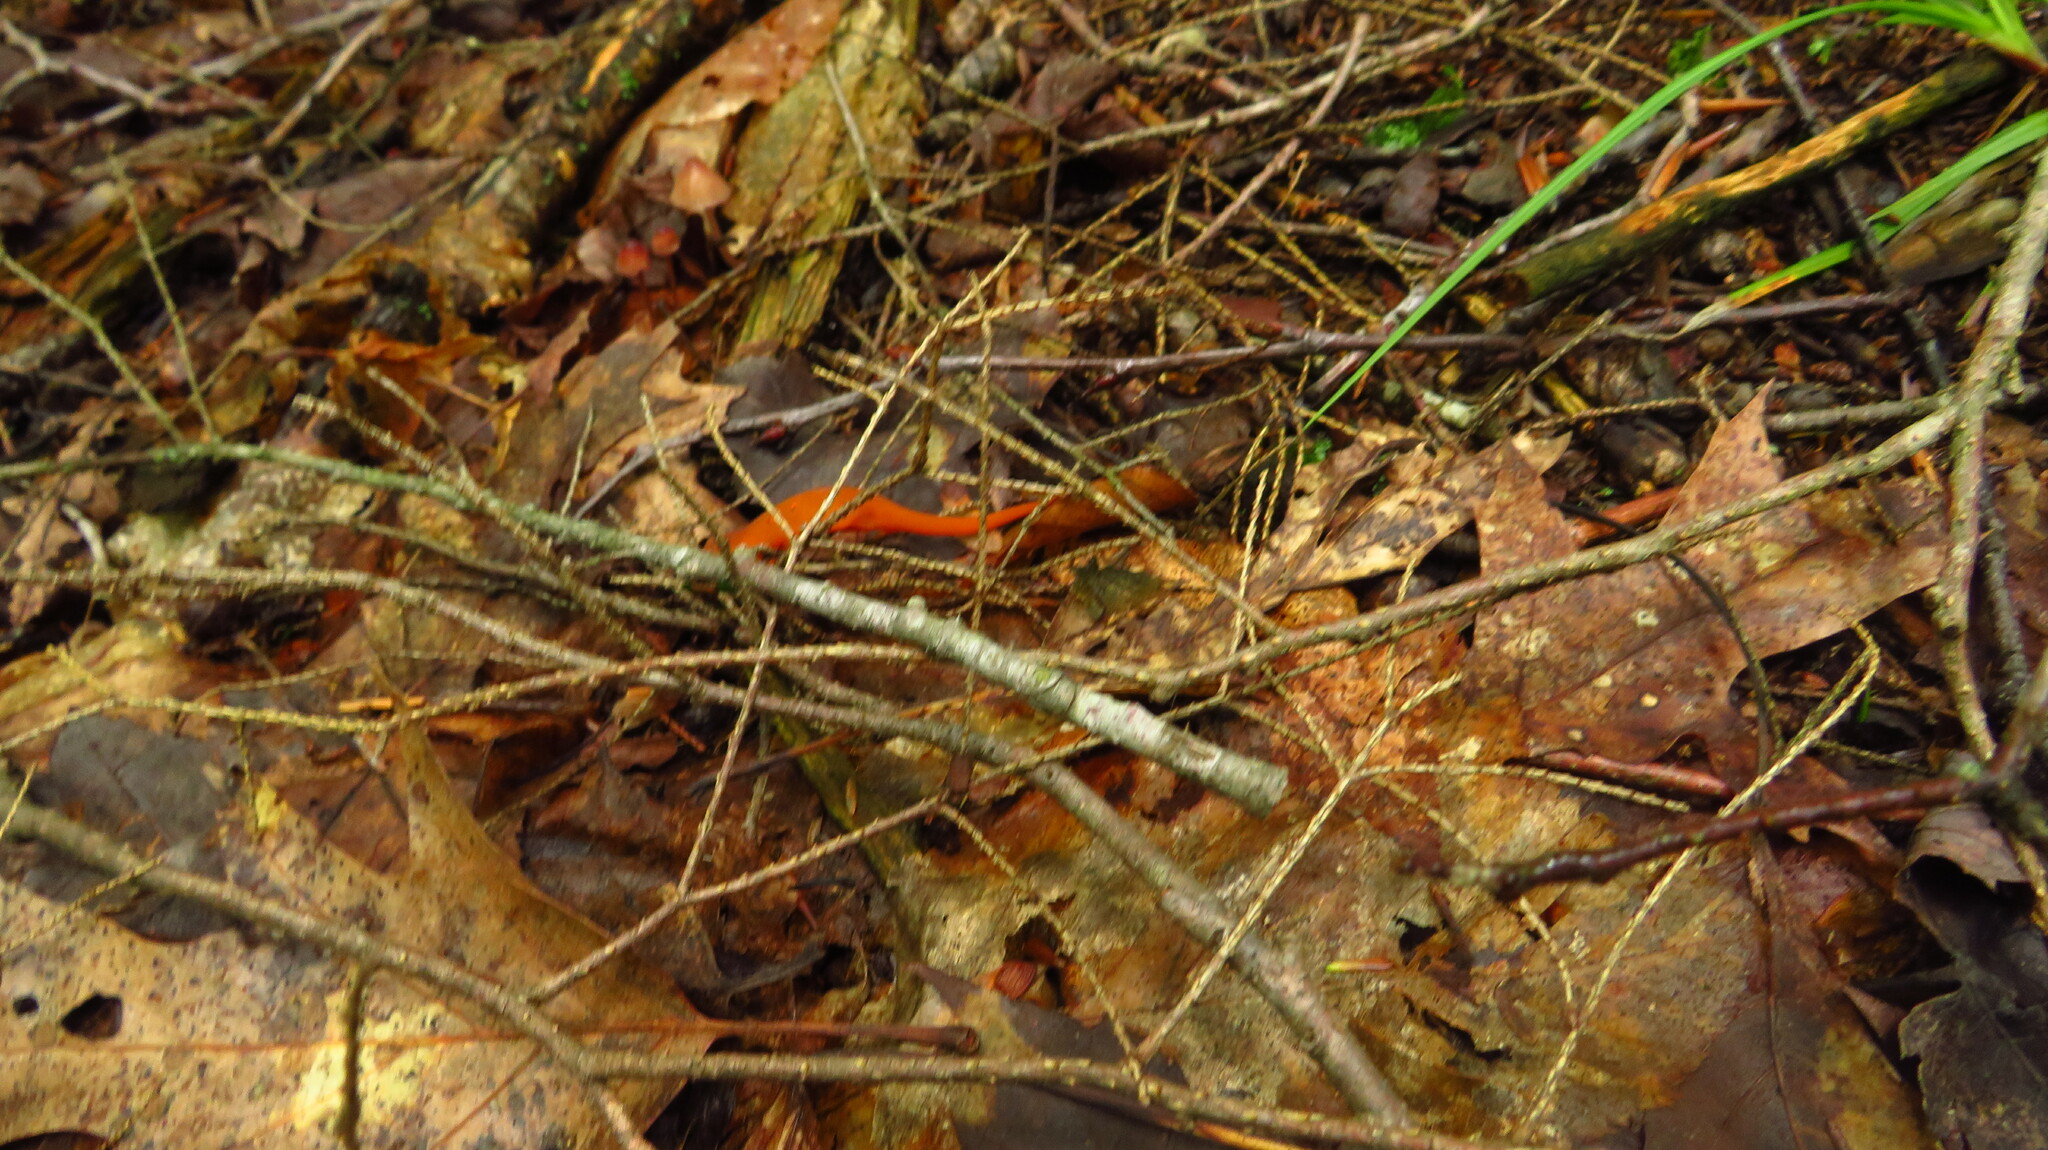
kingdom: Animalia
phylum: Chordata
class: Amphibia
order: Caudata
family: Salamandridae
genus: Notophthalmus
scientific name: Notophthalmus viridescens
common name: Eastern newt
